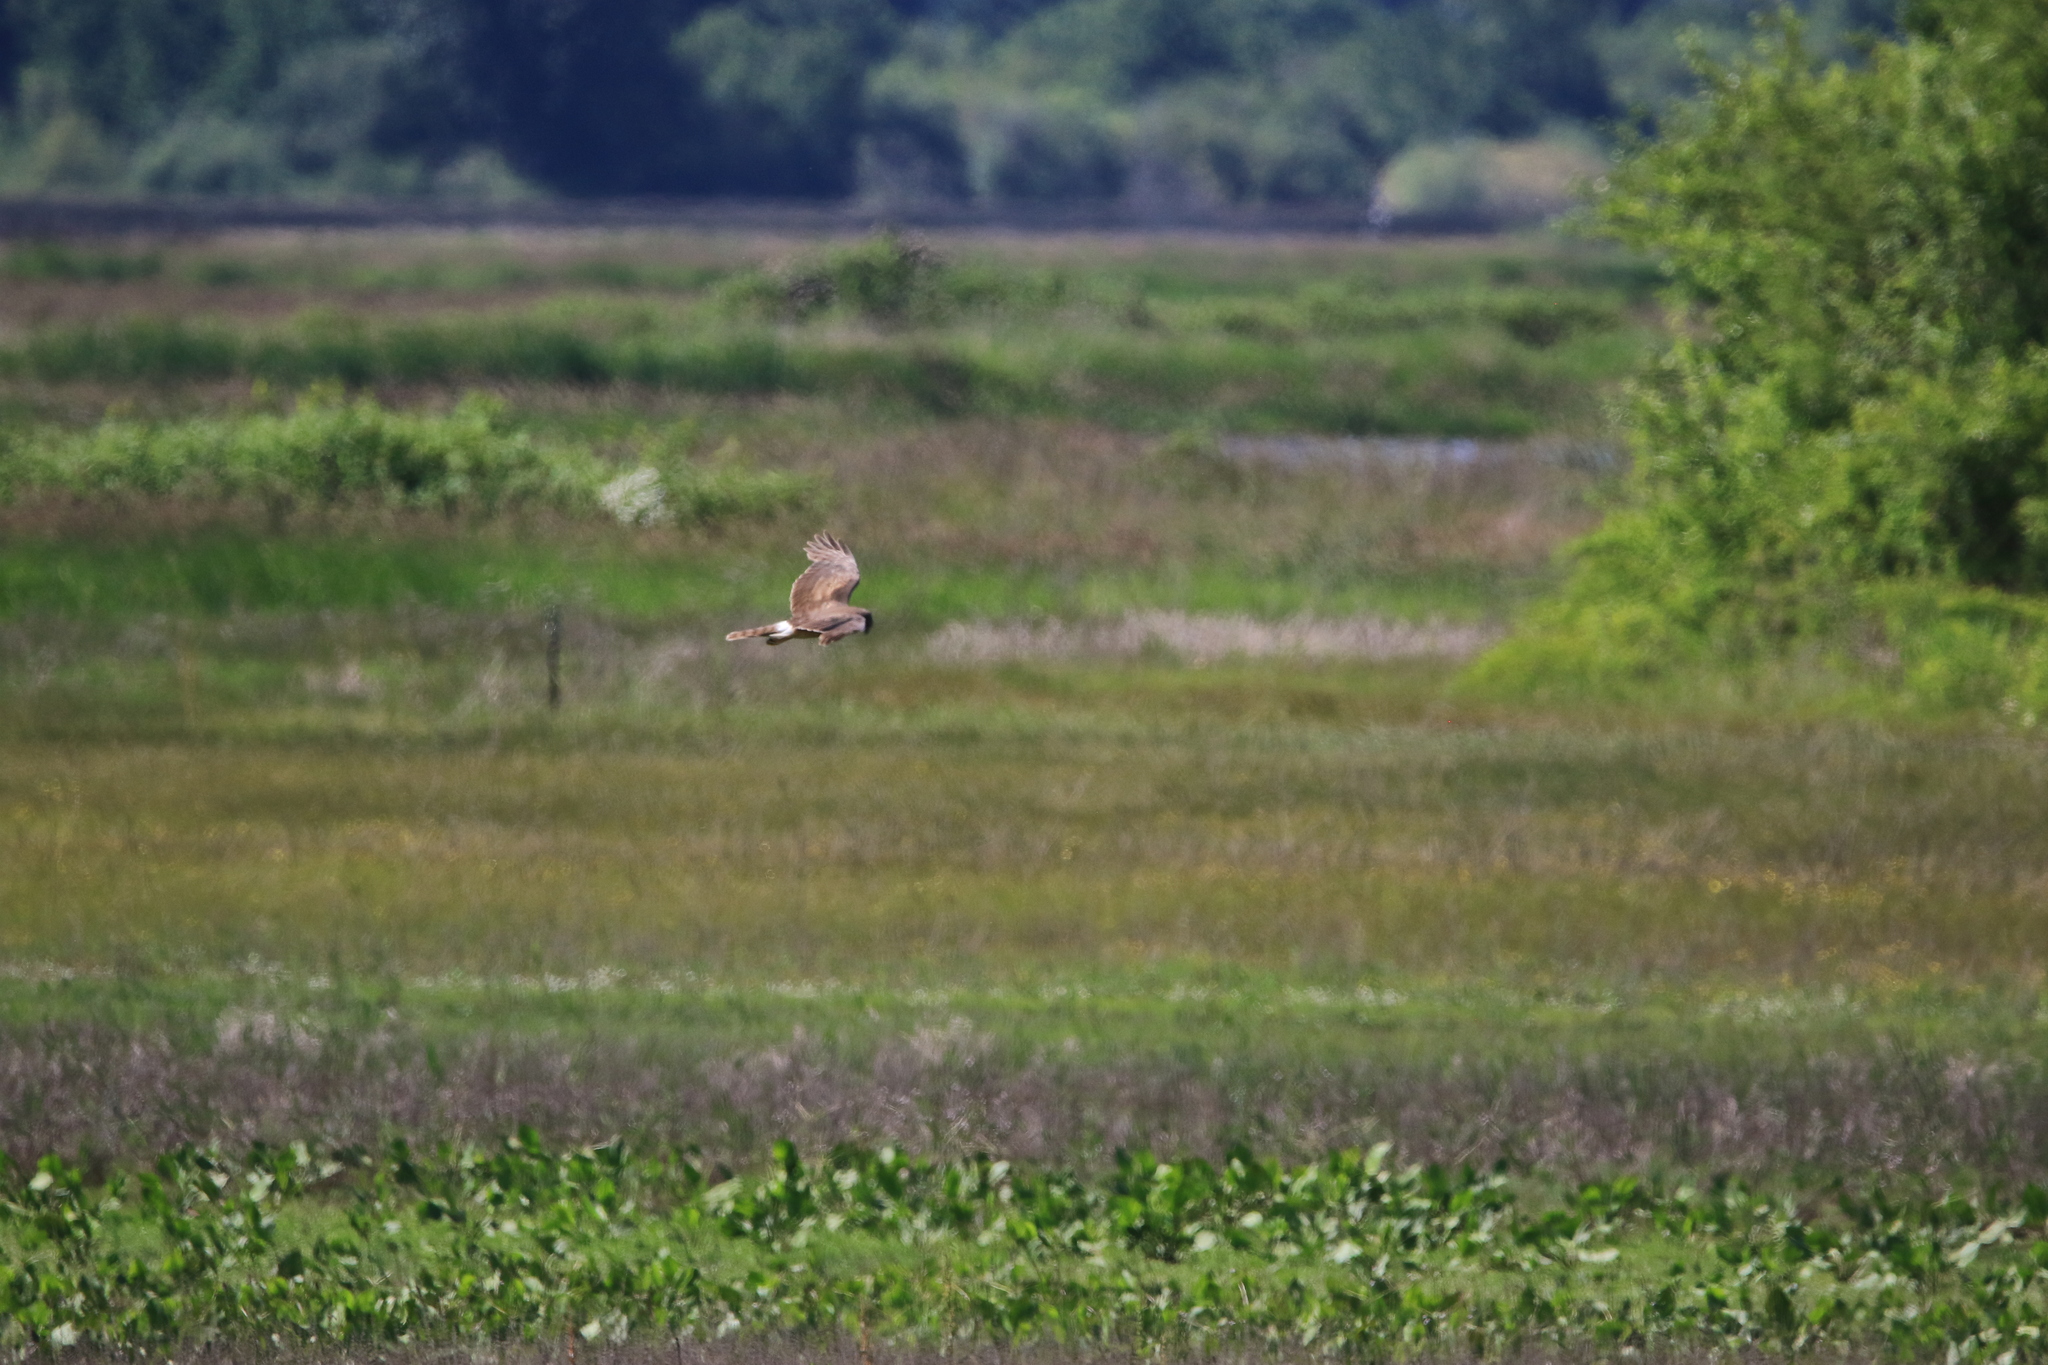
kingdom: Animalia
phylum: Chordata
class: Aves
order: Accipitriformes
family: Accipitridae
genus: Circus
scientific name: Circus cyaneus
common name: Hen harrier
